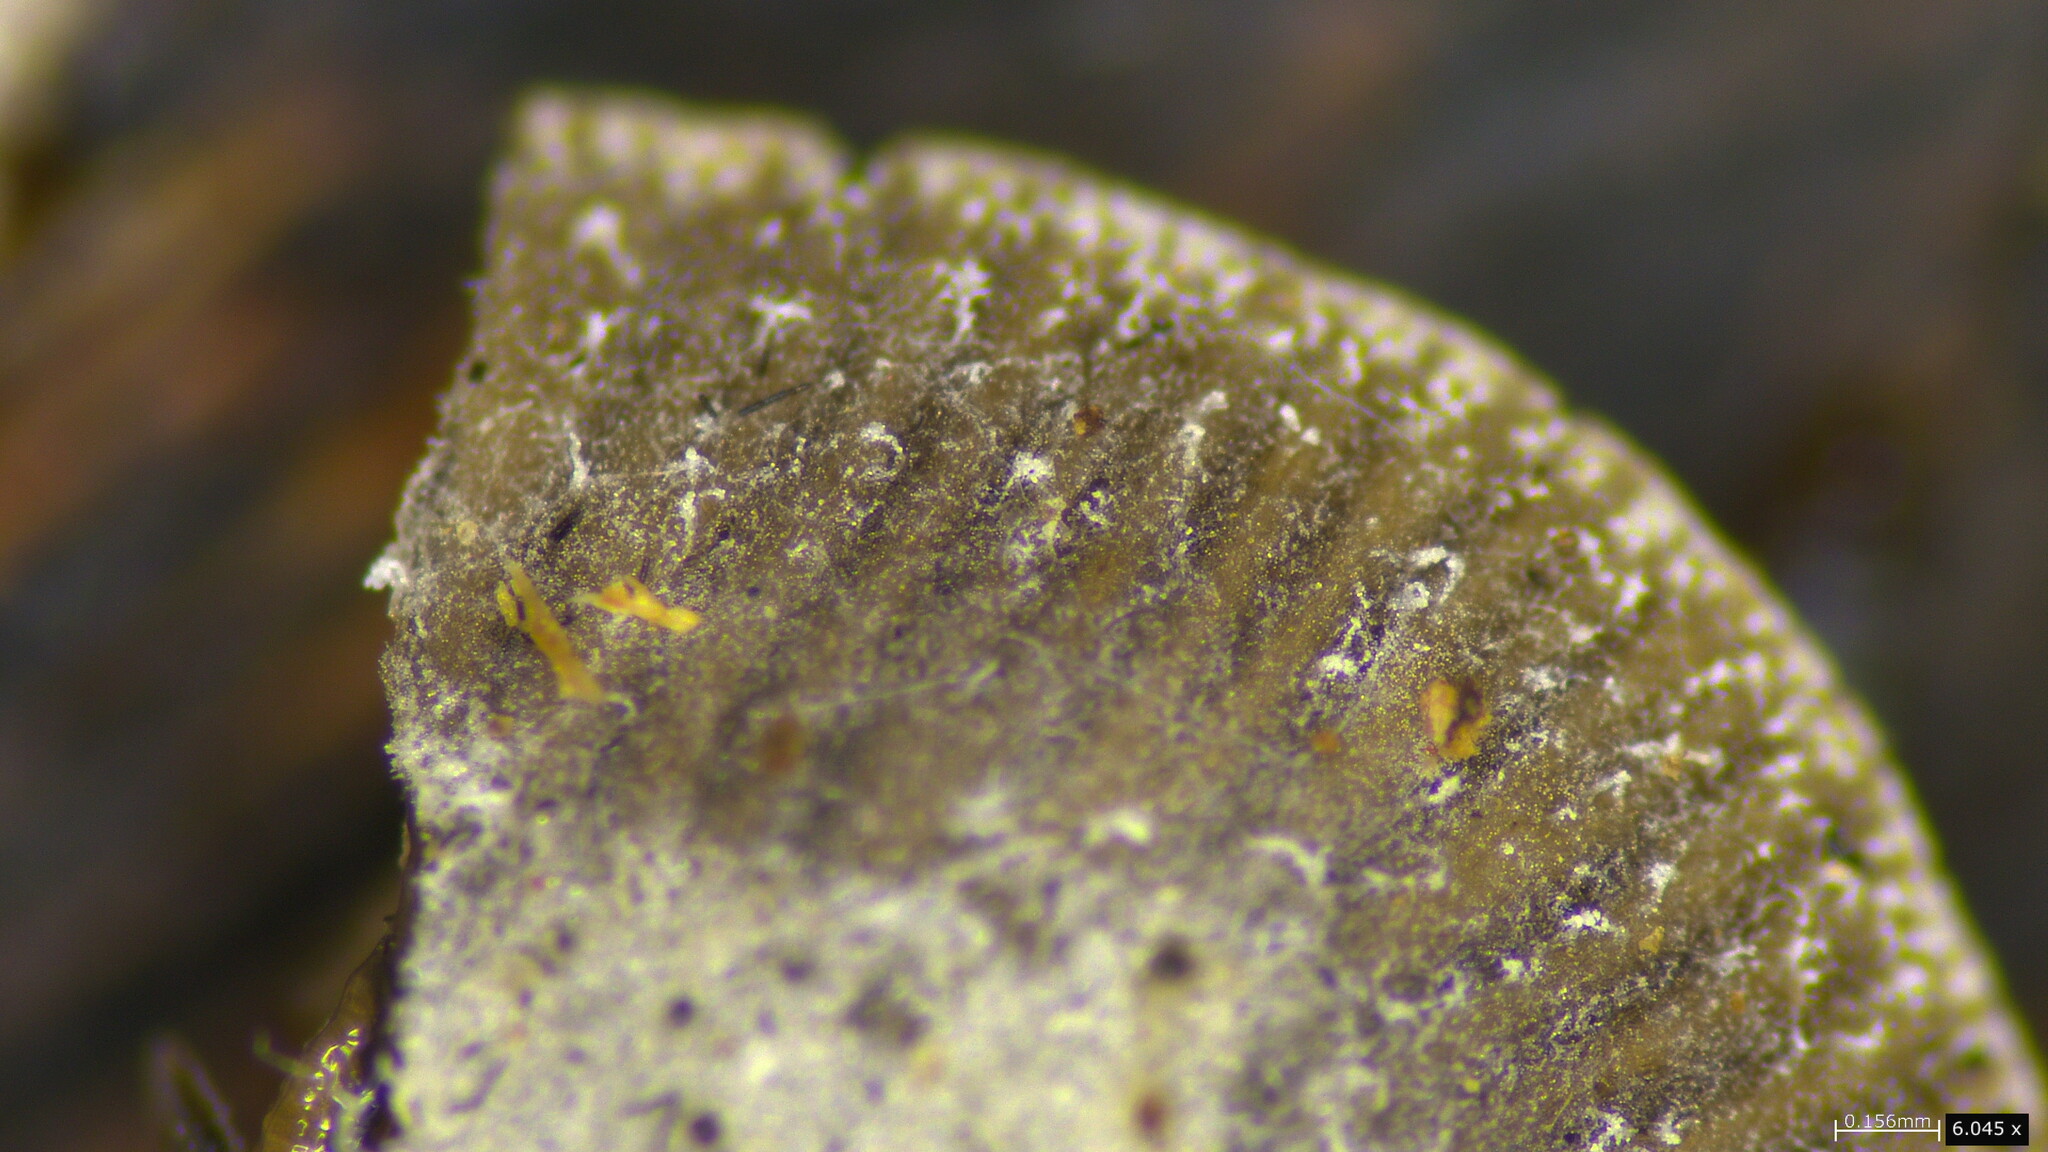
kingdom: Fungi
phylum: Basidiomycota
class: Agaricomycetes
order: Agaricales
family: Pleurotaceae
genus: Resupinatus
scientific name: Resupinatus applicatus
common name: Smoked oysterling
